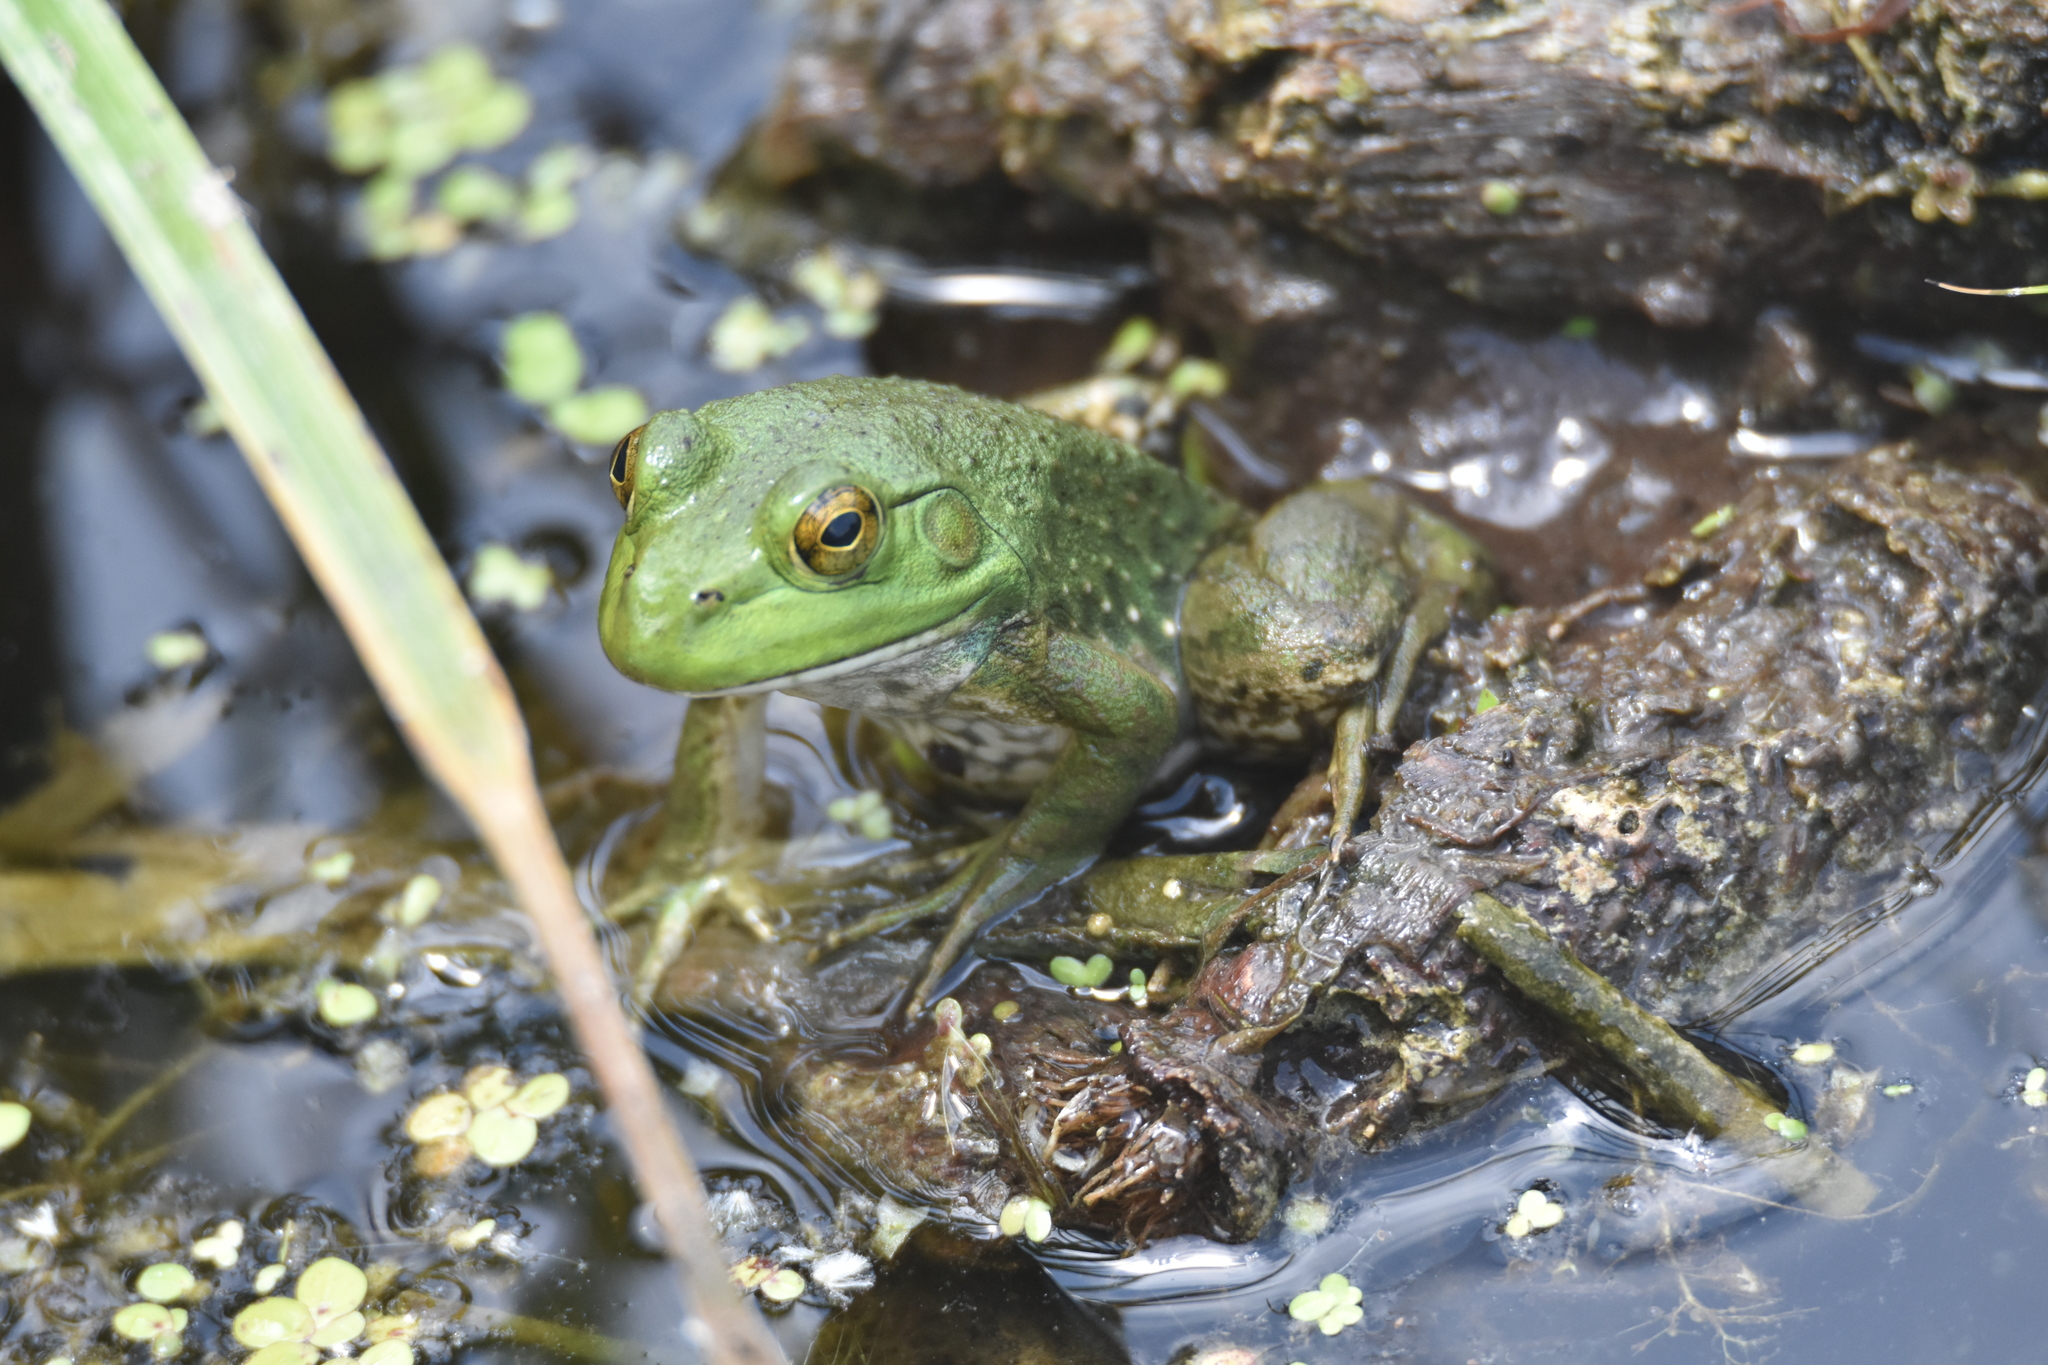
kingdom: Animalia
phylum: Chordata
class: Amphibia
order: Anura
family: Ranidae
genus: Lithobates
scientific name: Lithobates catesbeianus
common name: American bullfrog
